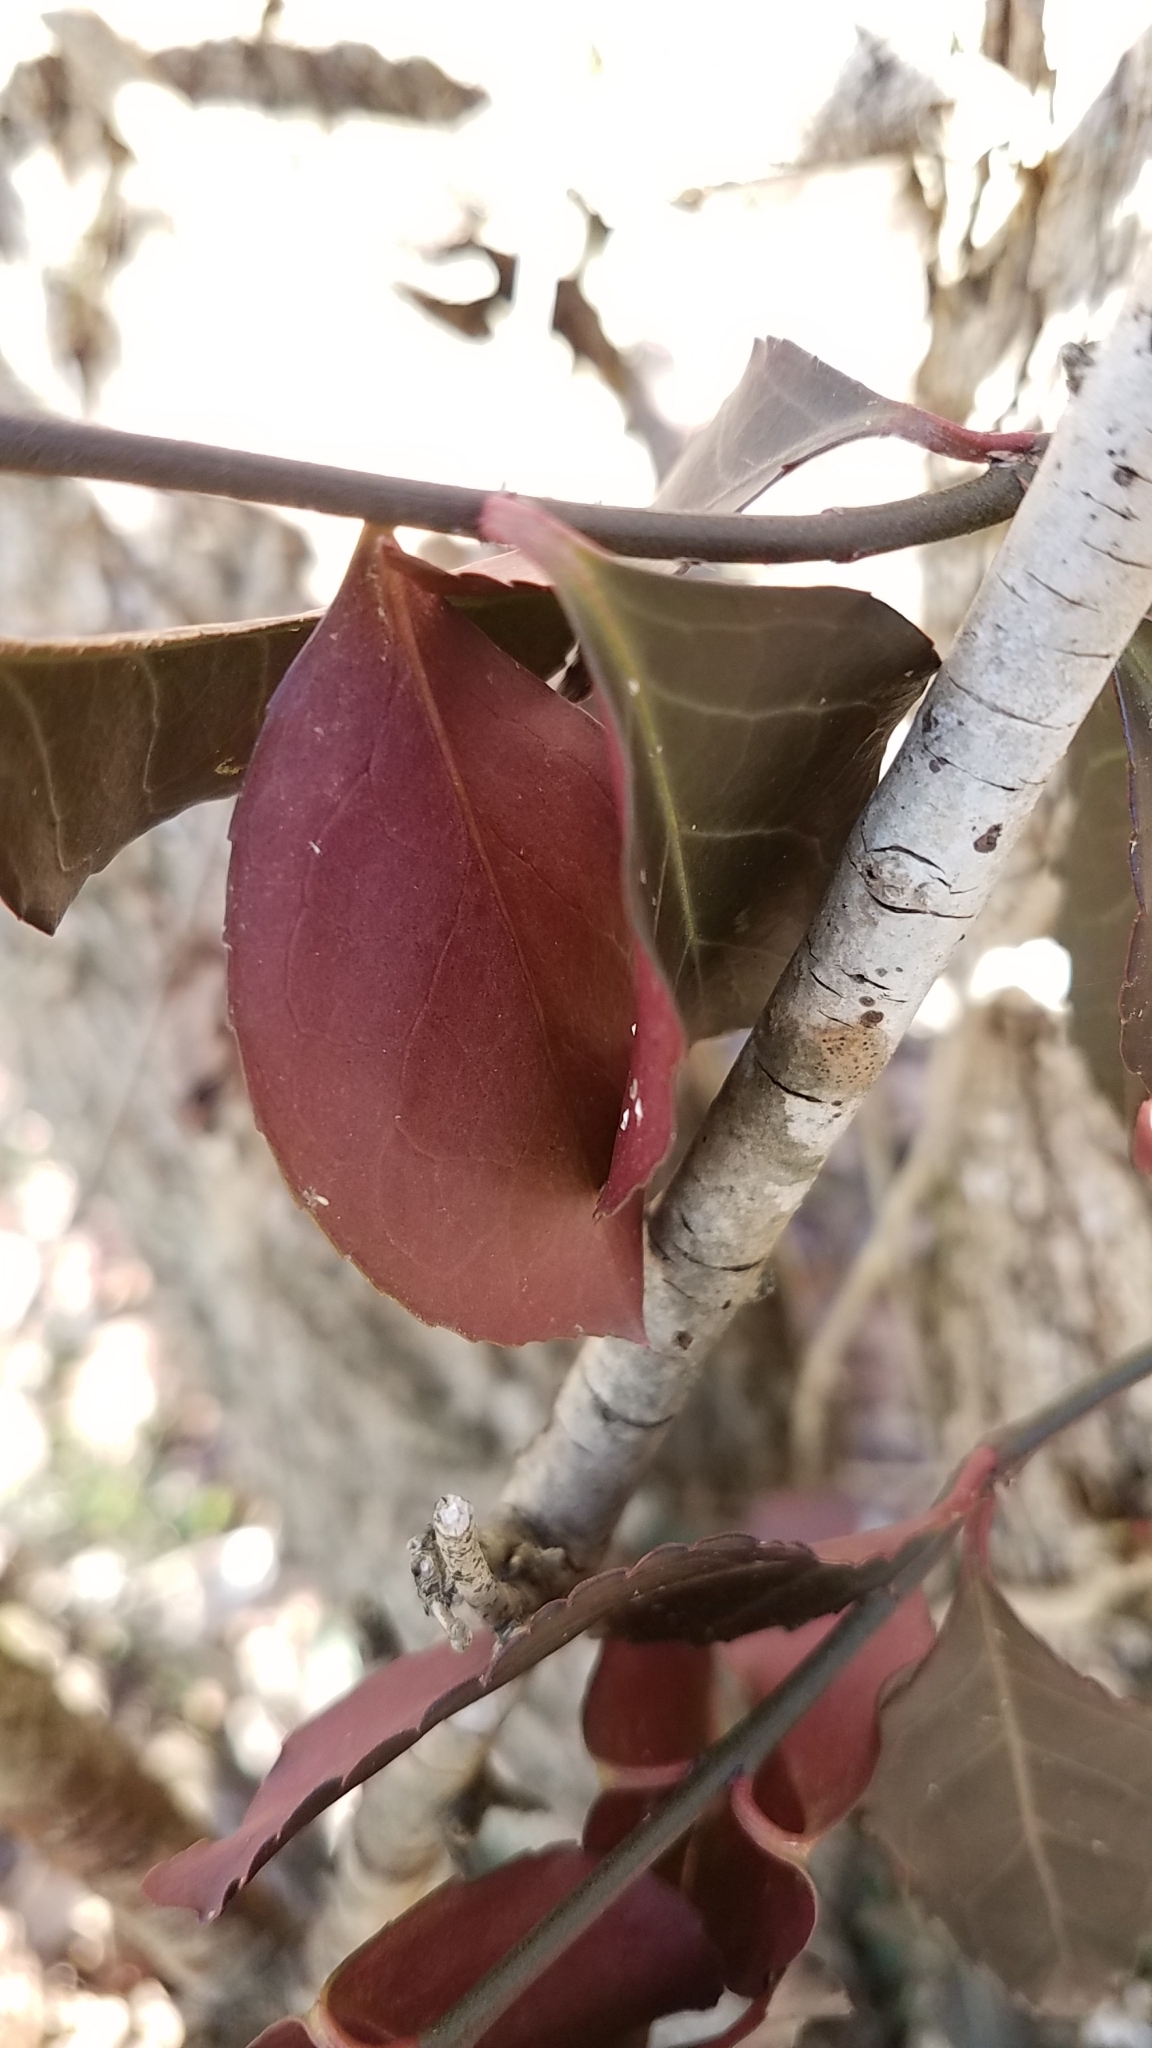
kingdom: Plantae
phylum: Tracheophyta
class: Magnoliopsida
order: Celastrales
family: Celastraceae
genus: Euonymus
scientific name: Euonymus fortunei
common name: Climbing euonymus
